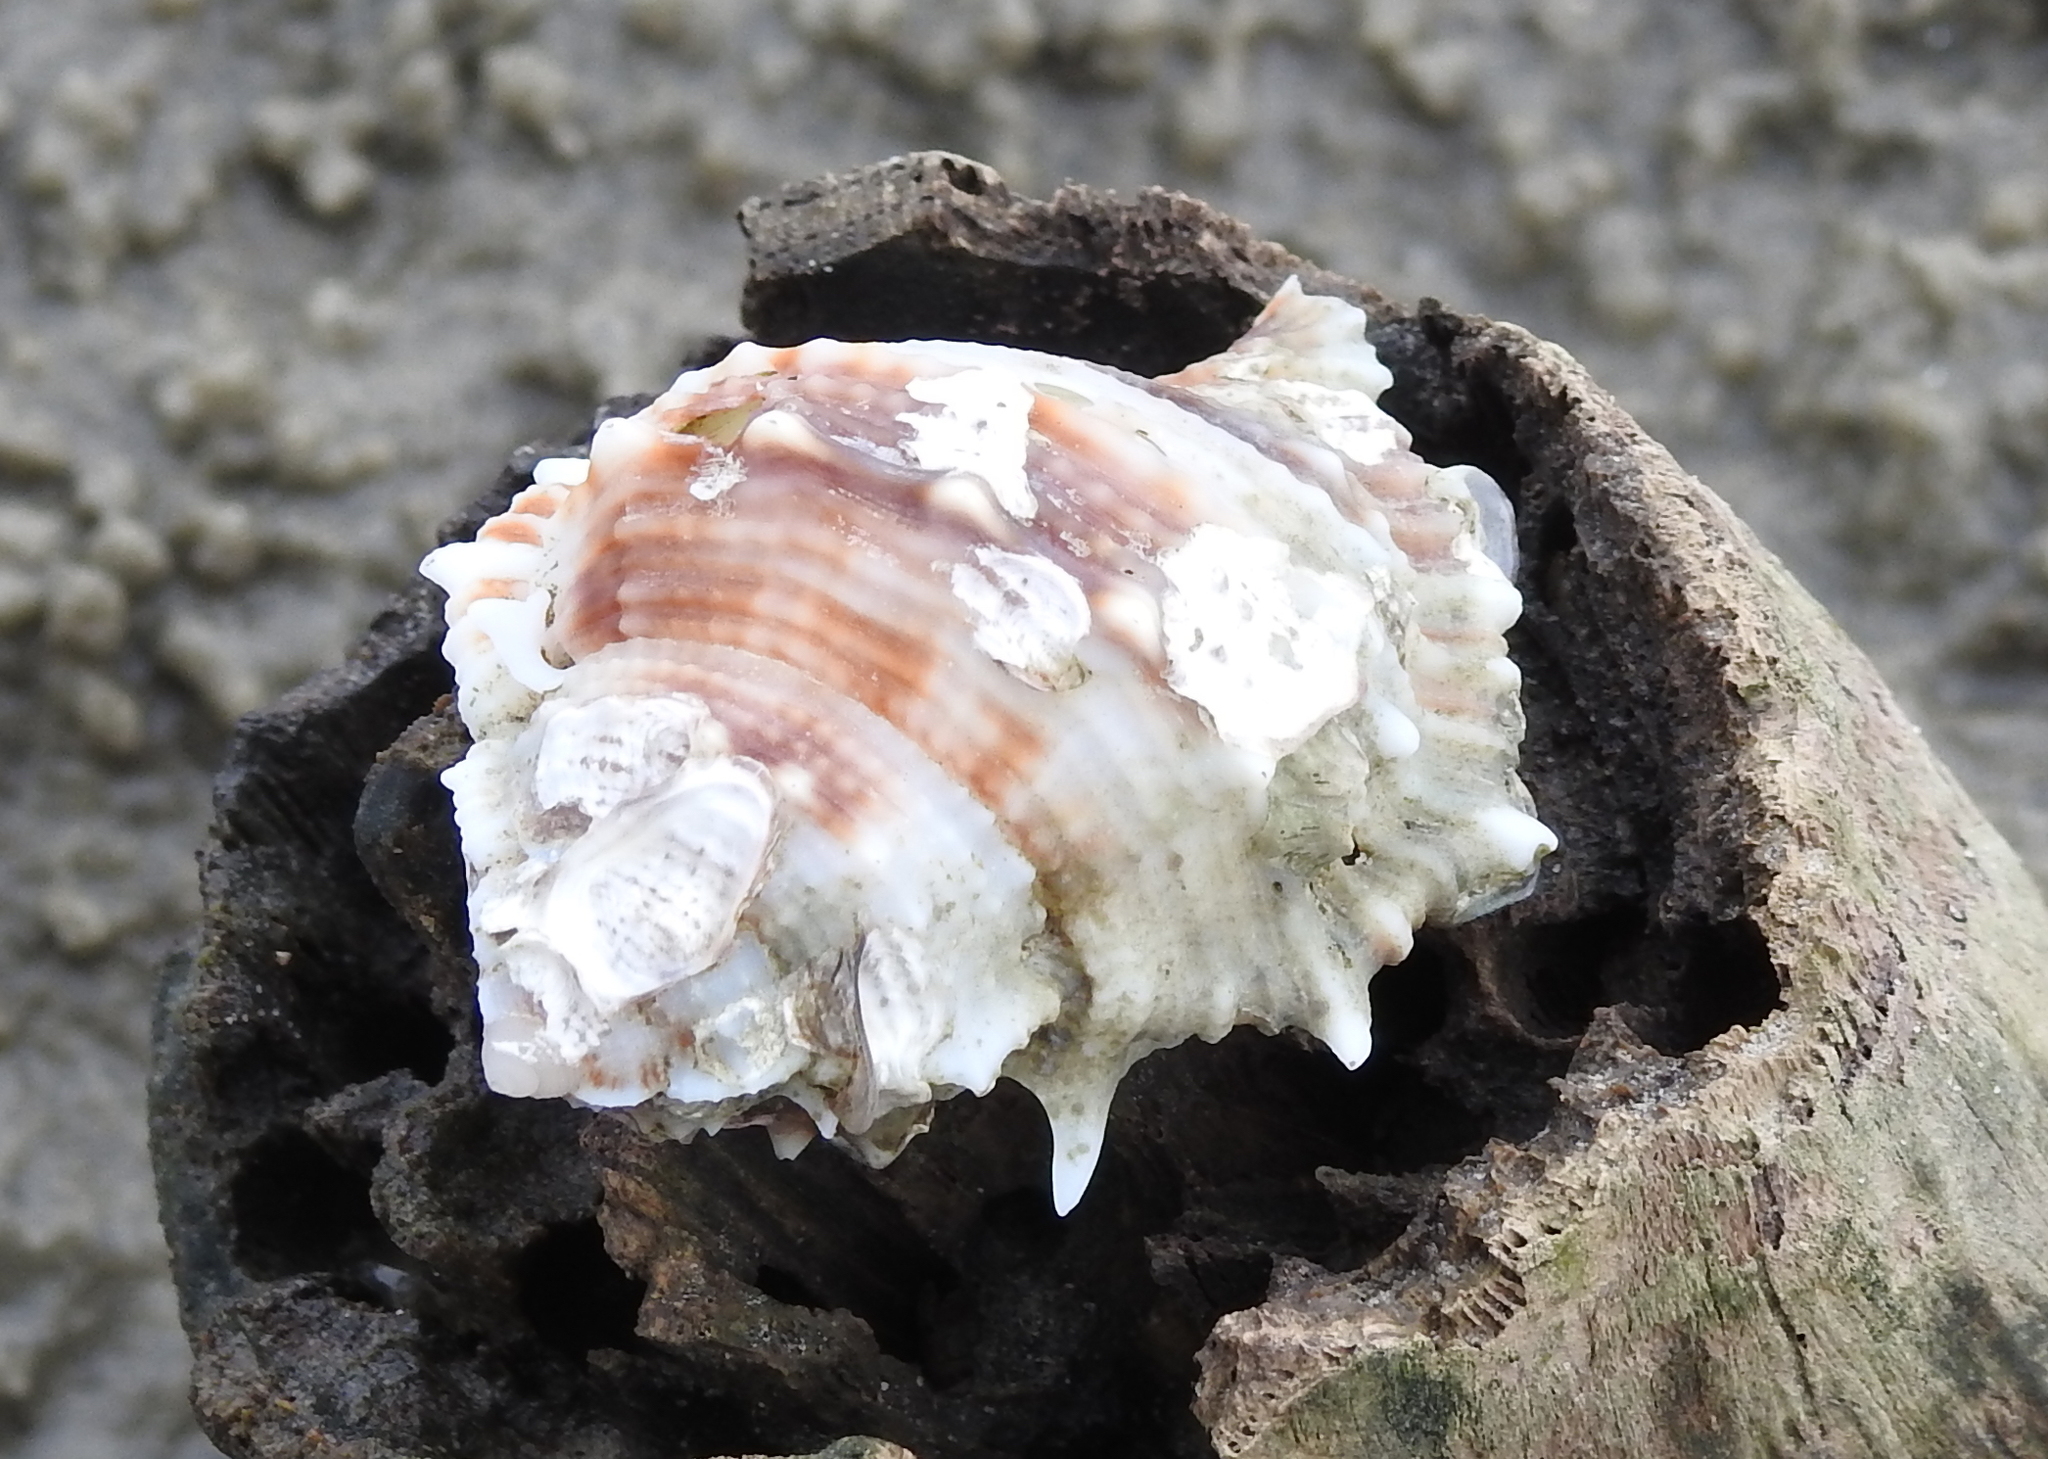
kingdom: Animalia
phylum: Mollusca
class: Gastropoda
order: Littorinimorpha
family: Bursidae
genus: Bufonaria
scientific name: Bufonaria rana
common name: Common frogsnail
